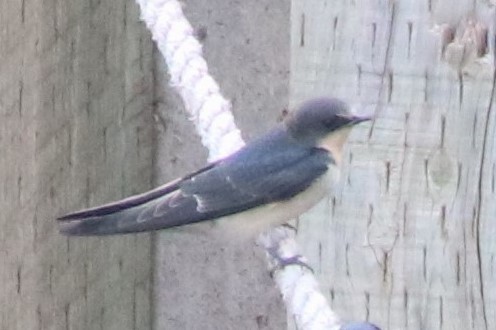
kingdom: Animalia
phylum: Chordata
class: Aves
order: Passeriformes
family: Hirundinidae
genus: Hirundo
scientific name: Hirundo rustica
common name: Barn swallow
